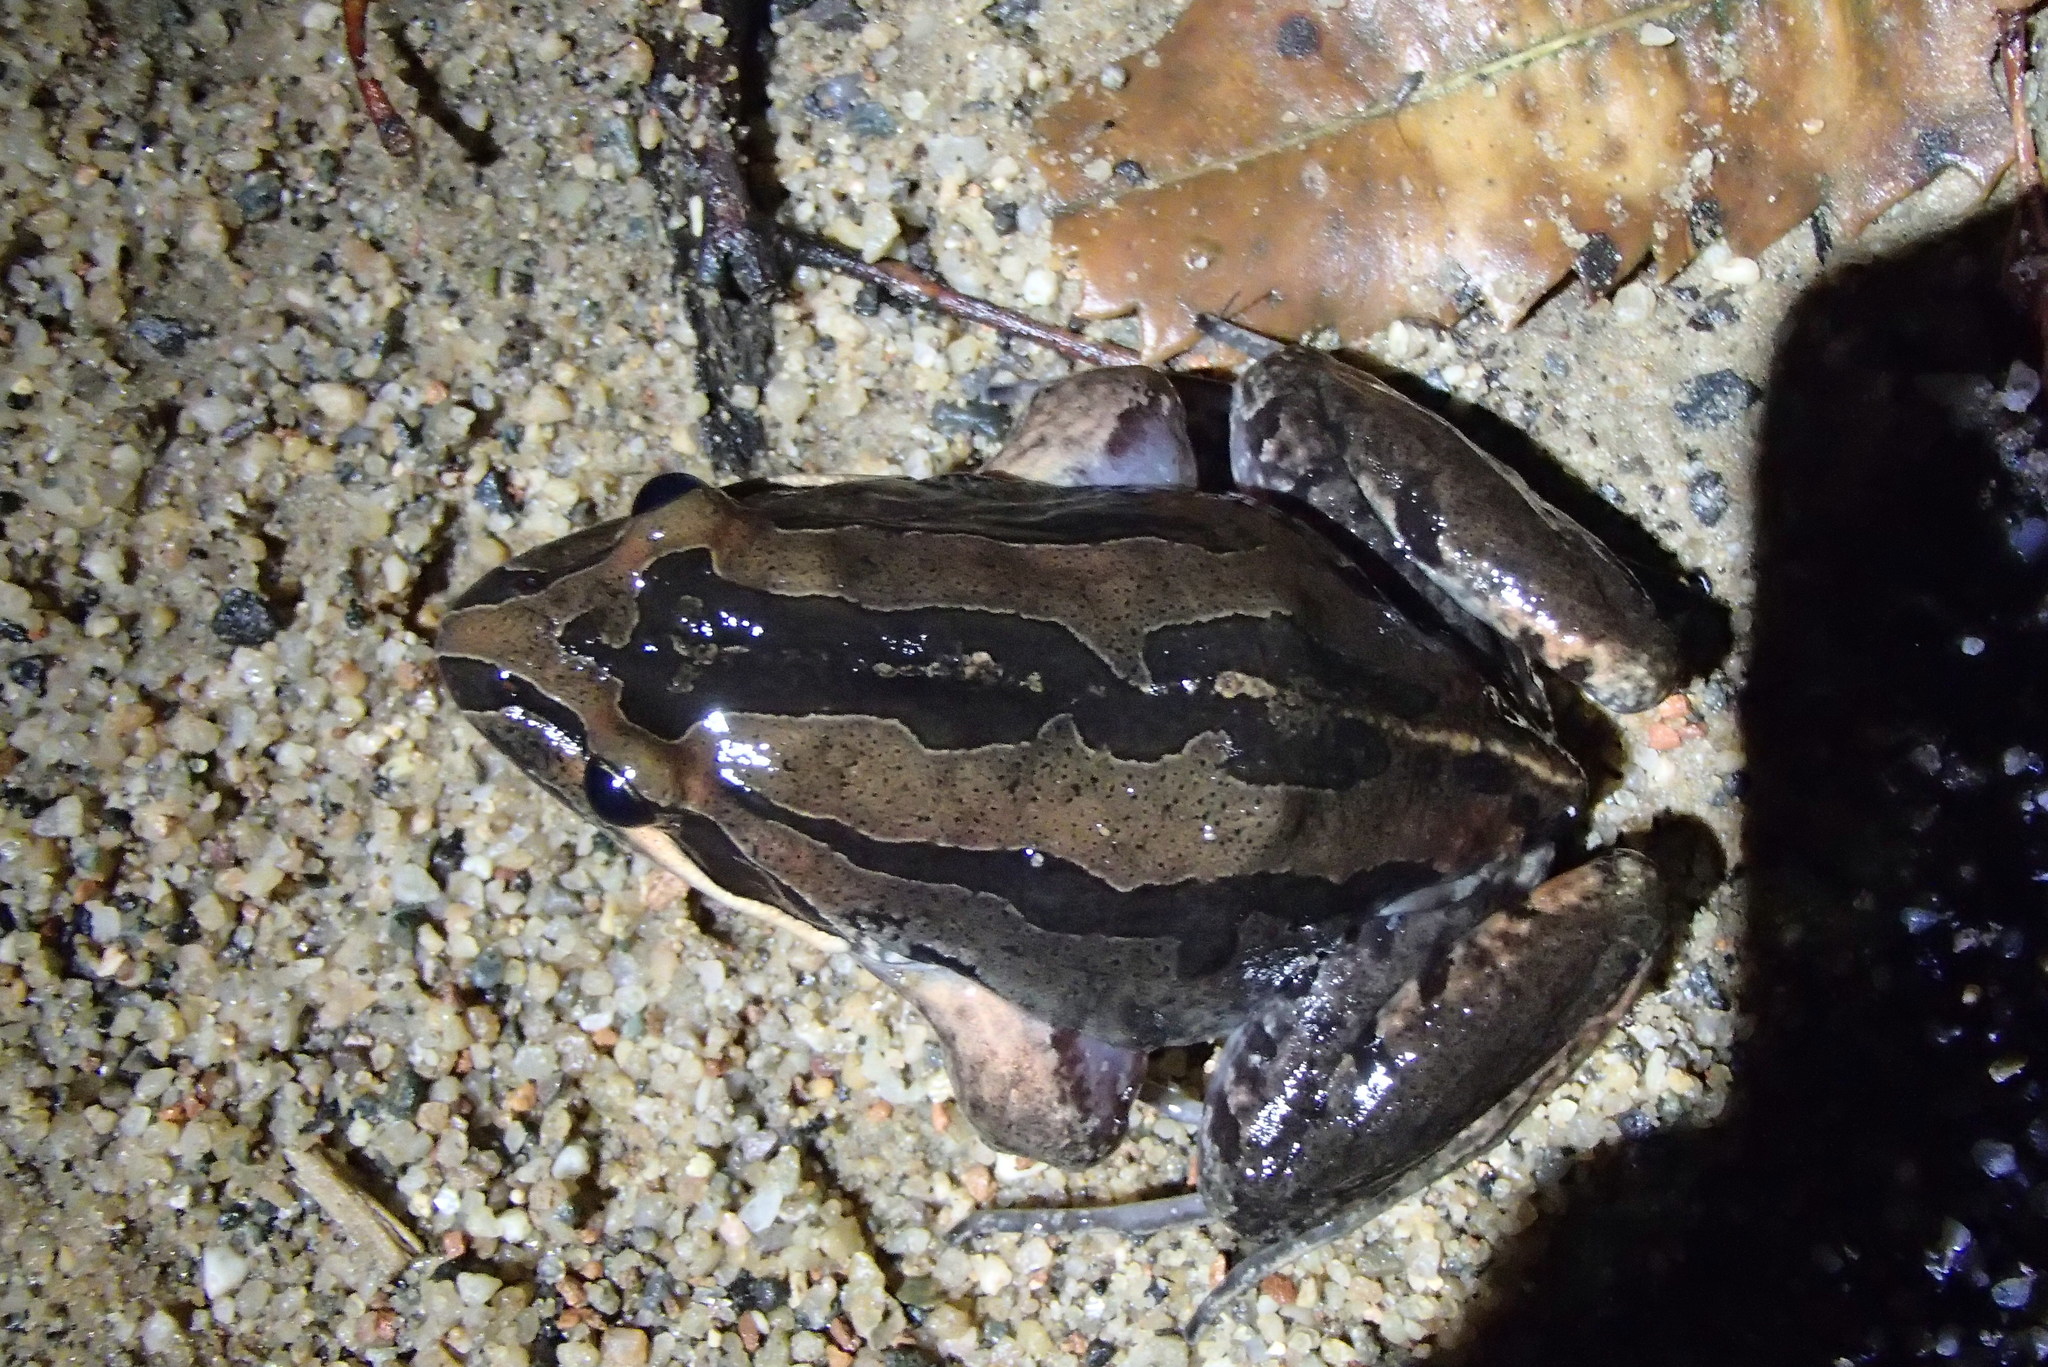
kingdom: Animalia
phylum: Chordata
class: Amphibia
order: Anura
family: Limnodynastidae
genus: Limnodynastes
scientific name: Limnodynastes peronii
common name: Brown frog
